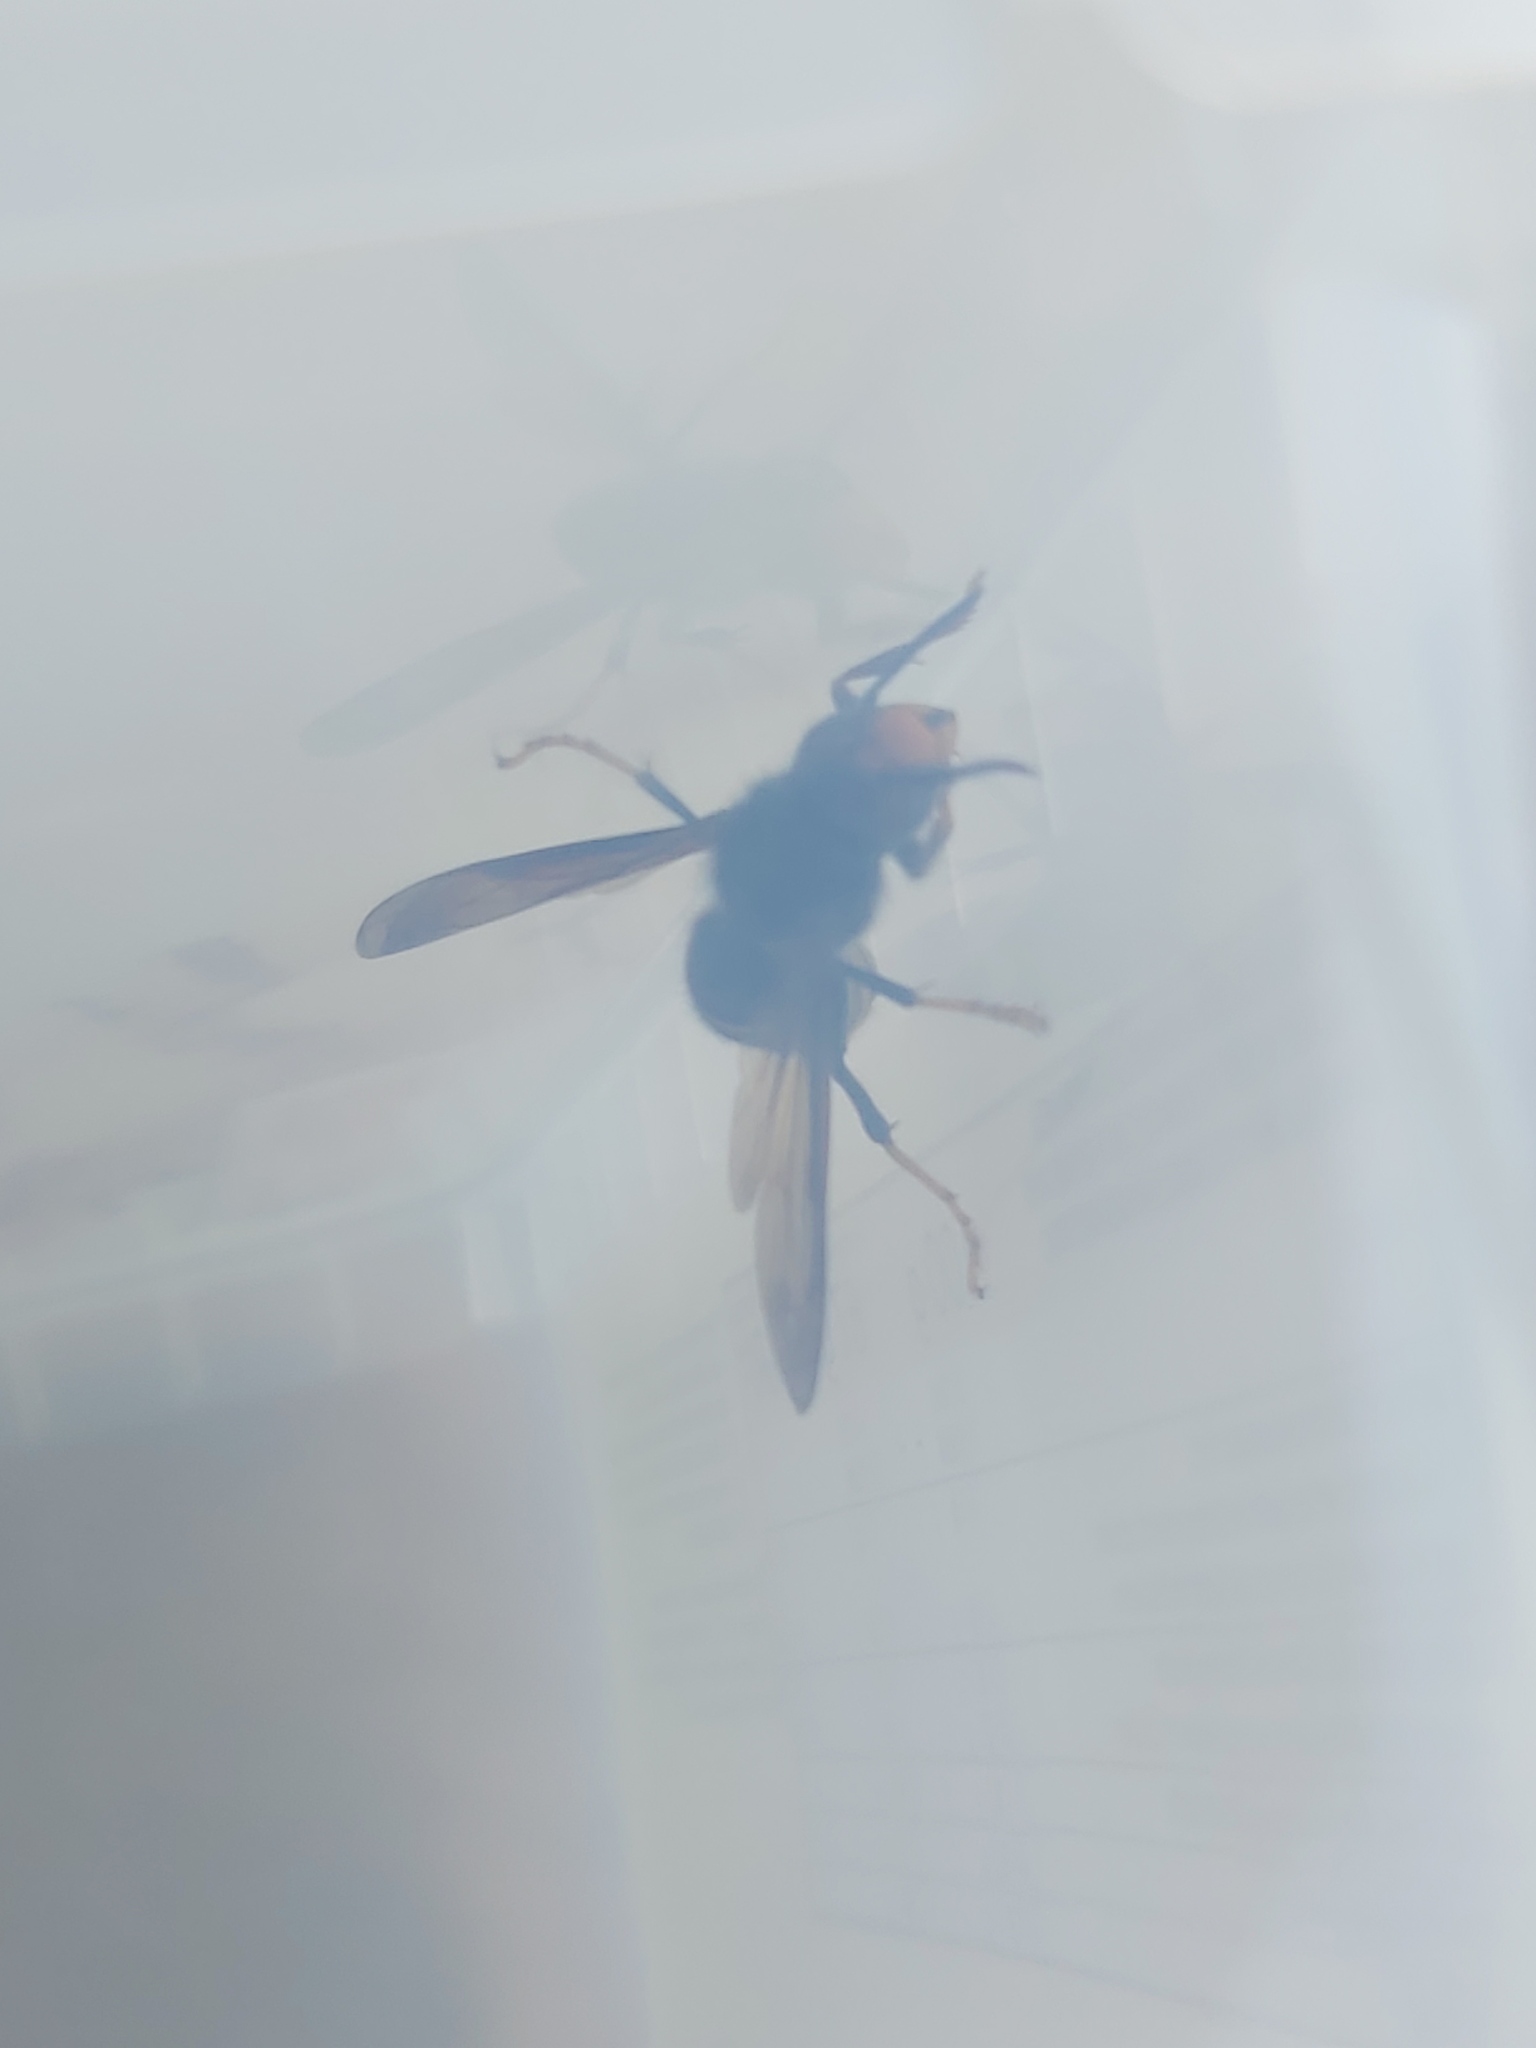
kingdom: Animalia
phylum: Arthropoda
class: Insecta
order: Hymenoptera
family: Vespidae
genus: Vespa
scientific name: Vespa velutina
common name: Asian hornet
